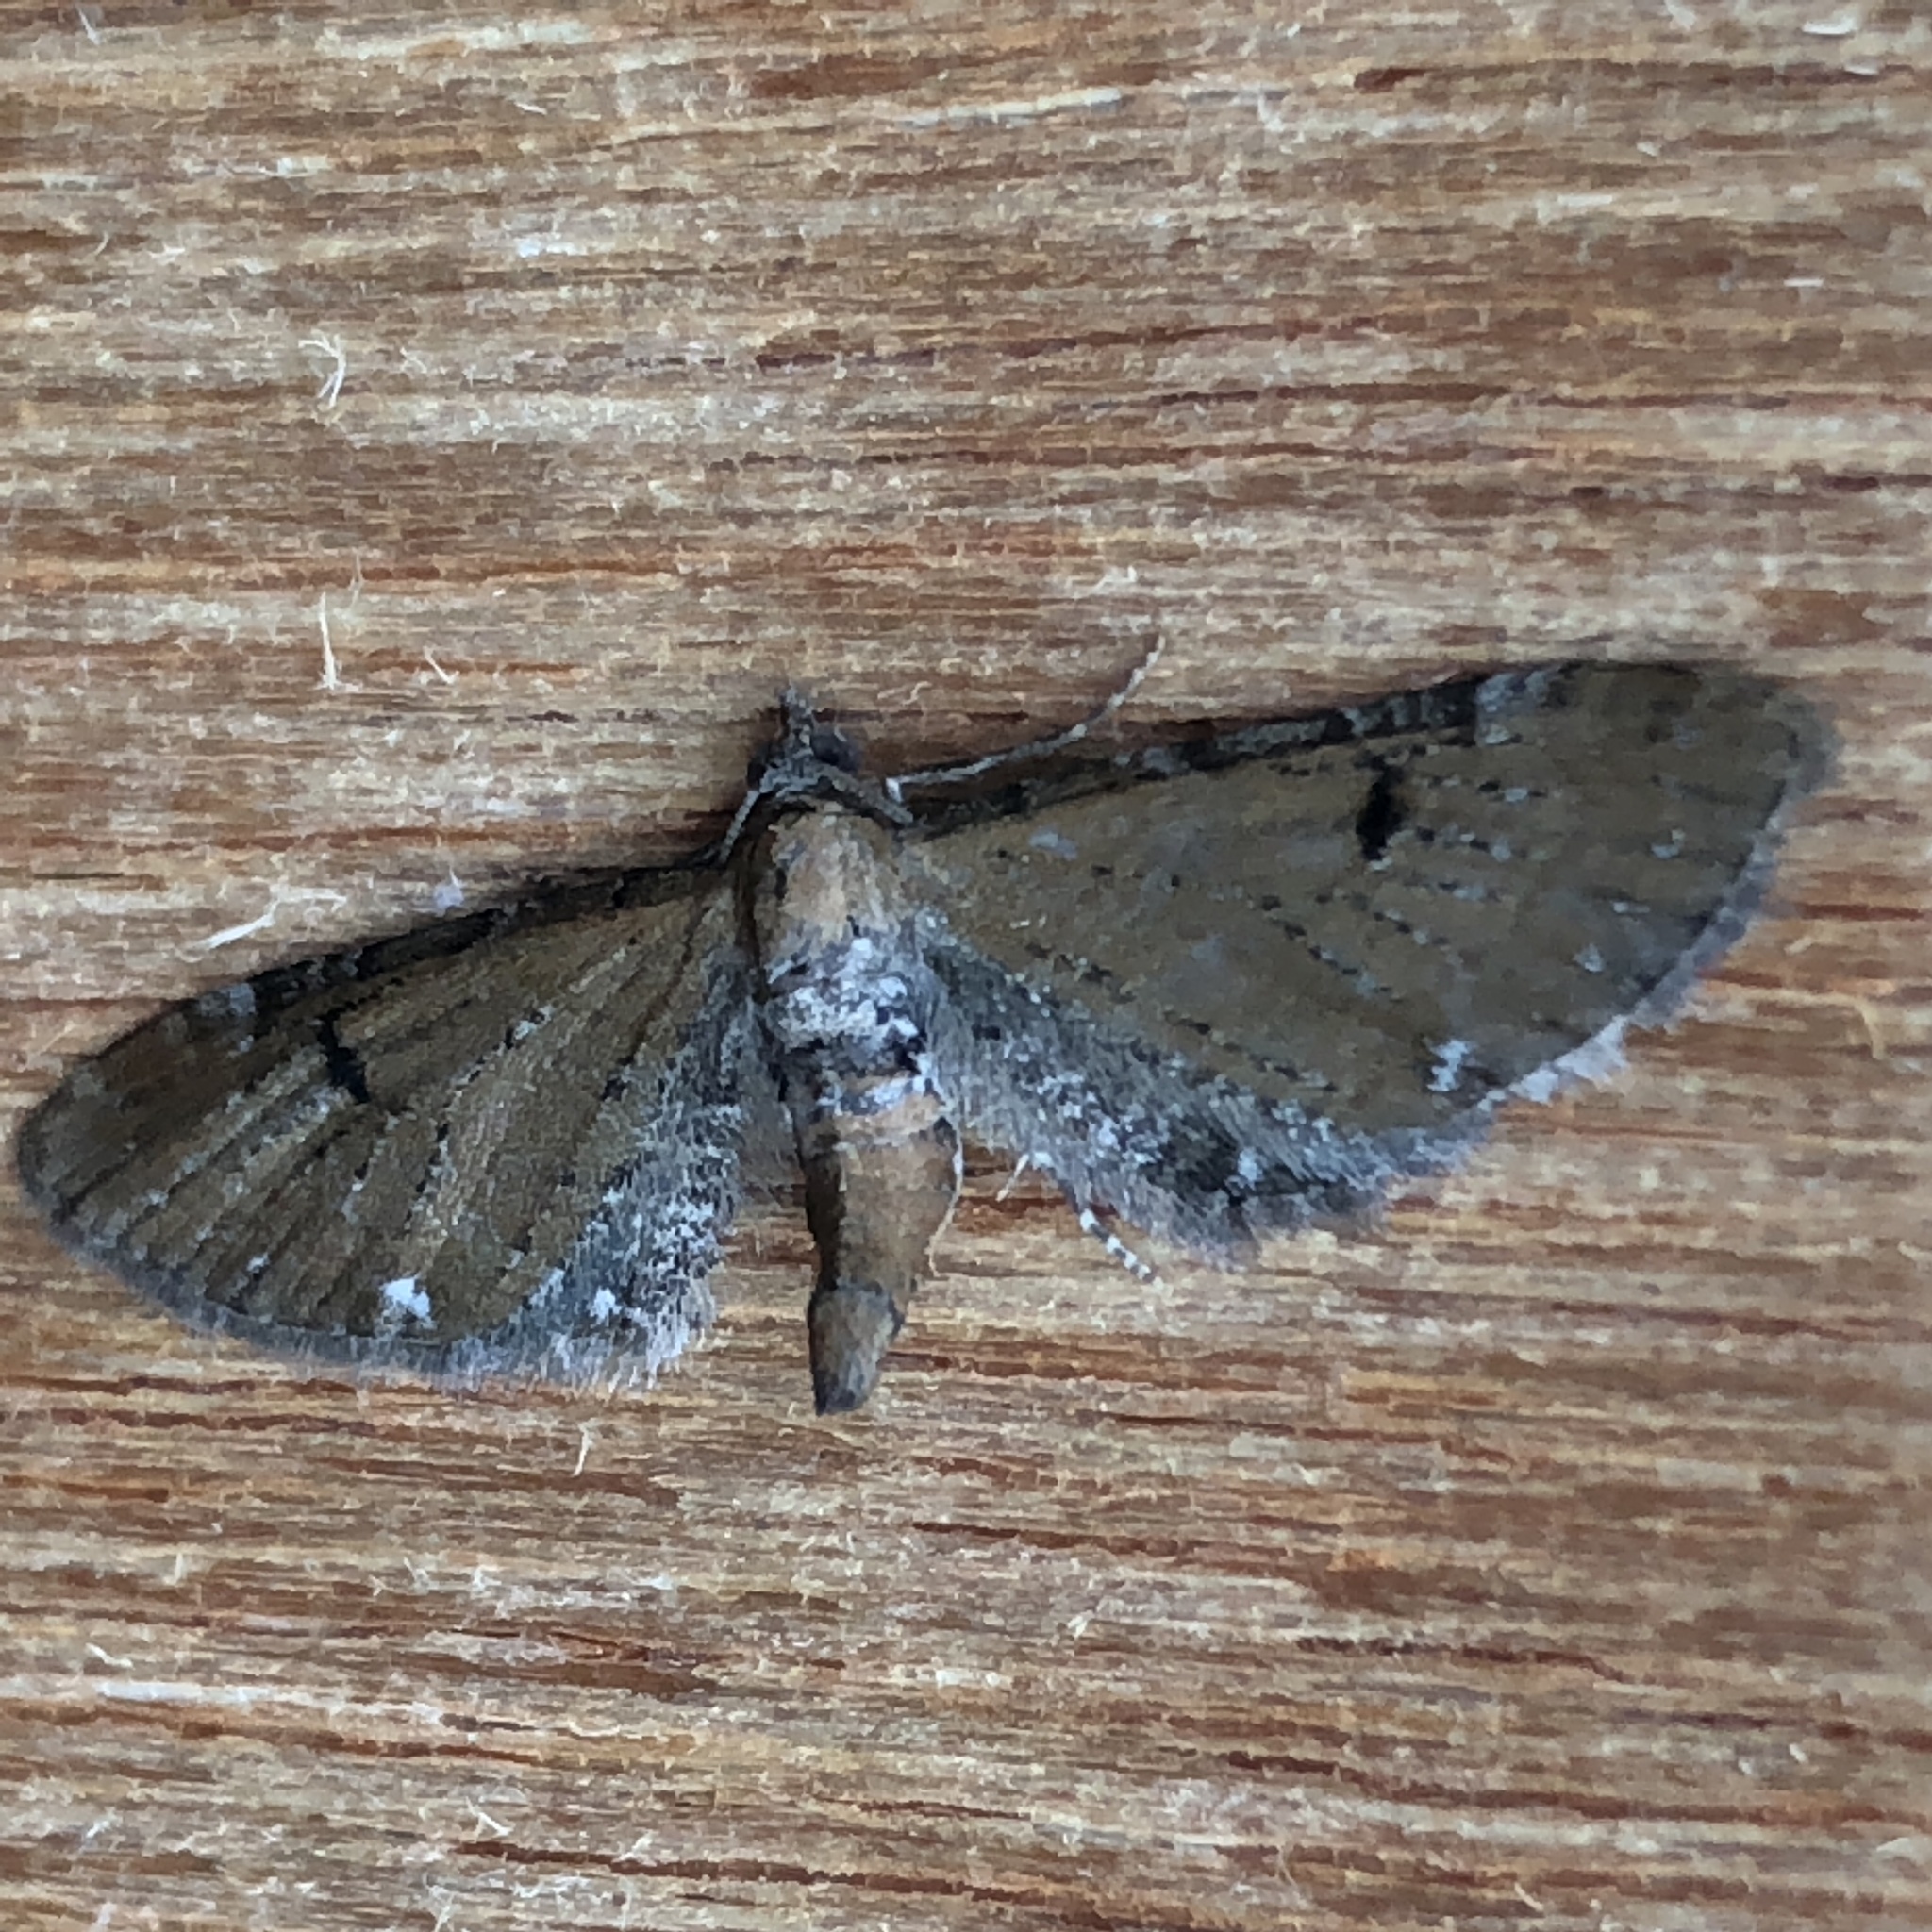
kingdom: Animalia
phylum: Arthropoda
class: Insecta
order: Lepidoptera
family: Geometridae
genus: Eupithecia
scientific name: Eupithecia tripunctaria
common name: White-spotted pug
